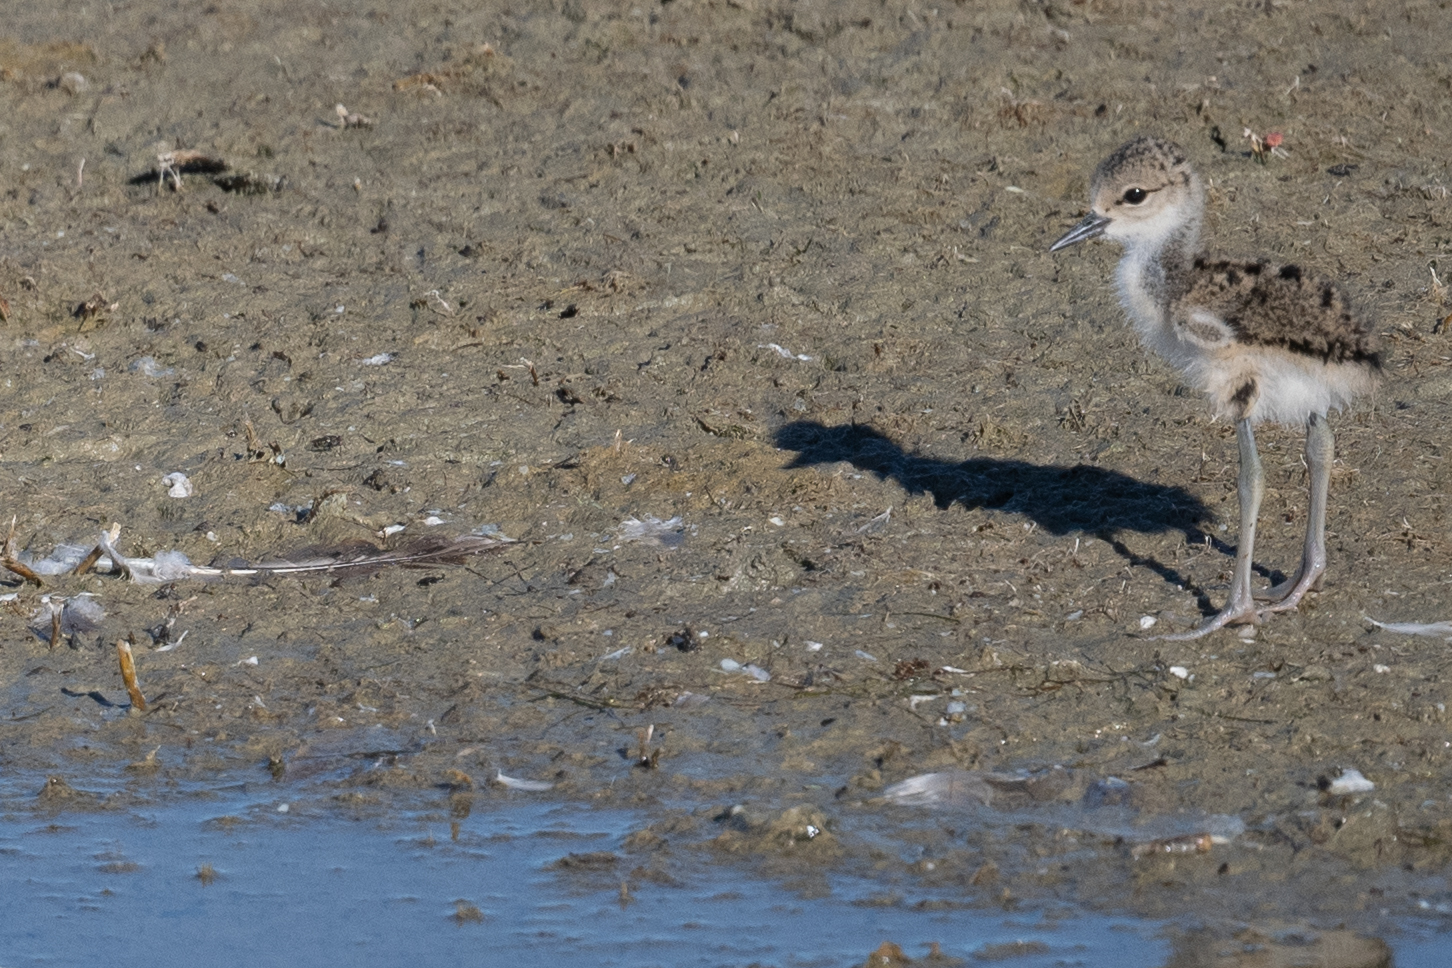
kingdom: Animalia
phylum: Chordata
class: Aves
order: Charadriiformes
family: Recurvirostridae
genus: Himantopus
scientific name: Himantopus mexicanus
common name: Black-necked stilt
